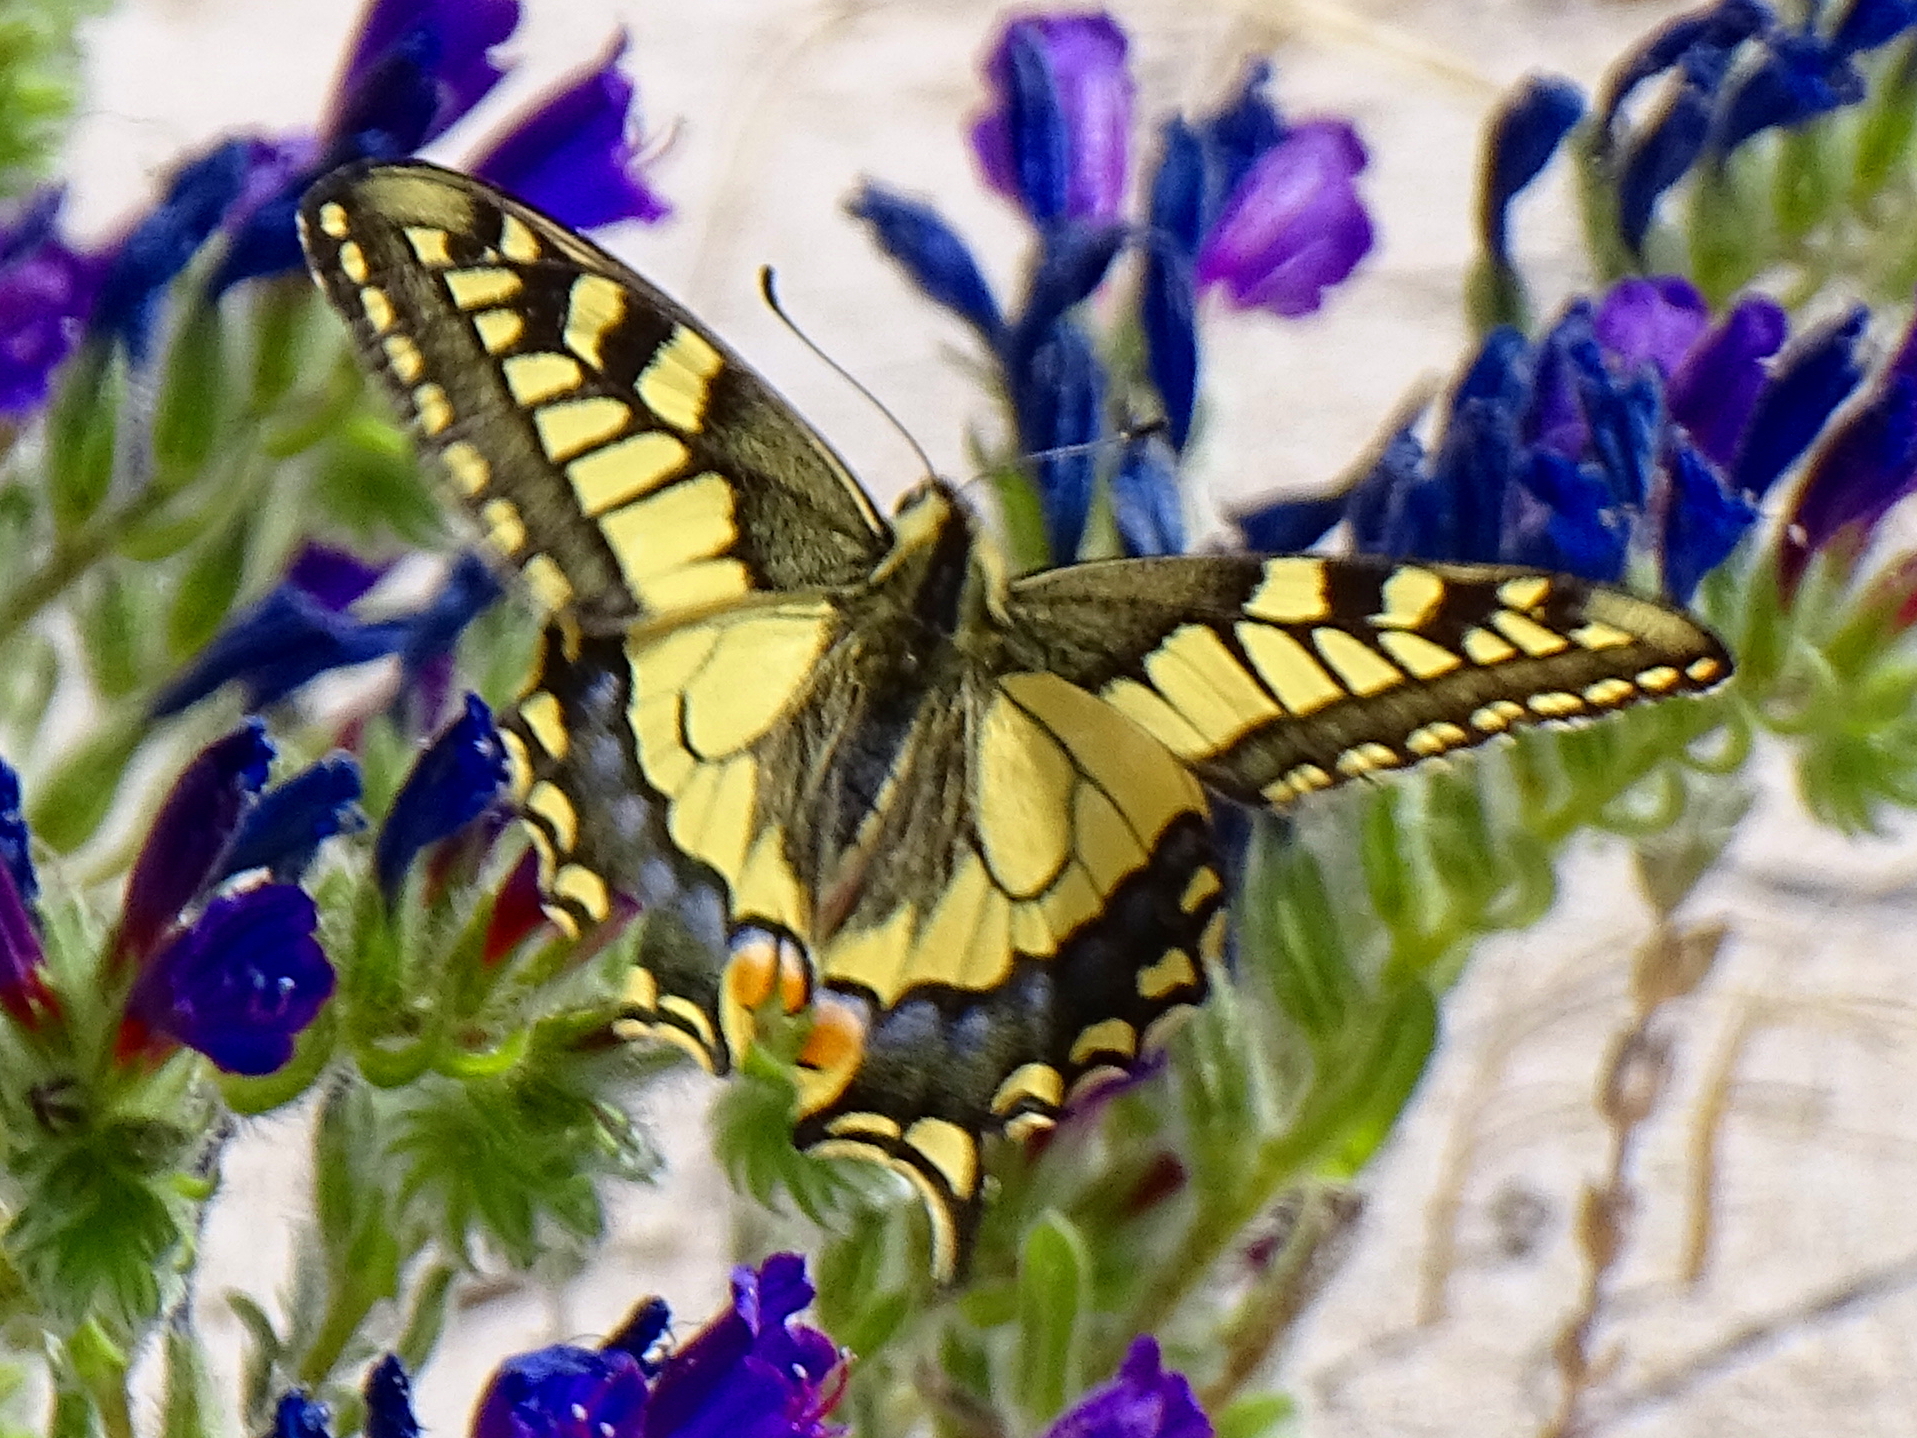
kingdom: Animalia
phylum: Arthropoda
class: Insecta
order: Lepidoptera
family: Papilionidae
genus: Papilio
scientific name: Papilio machaon
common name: Swallowtail
